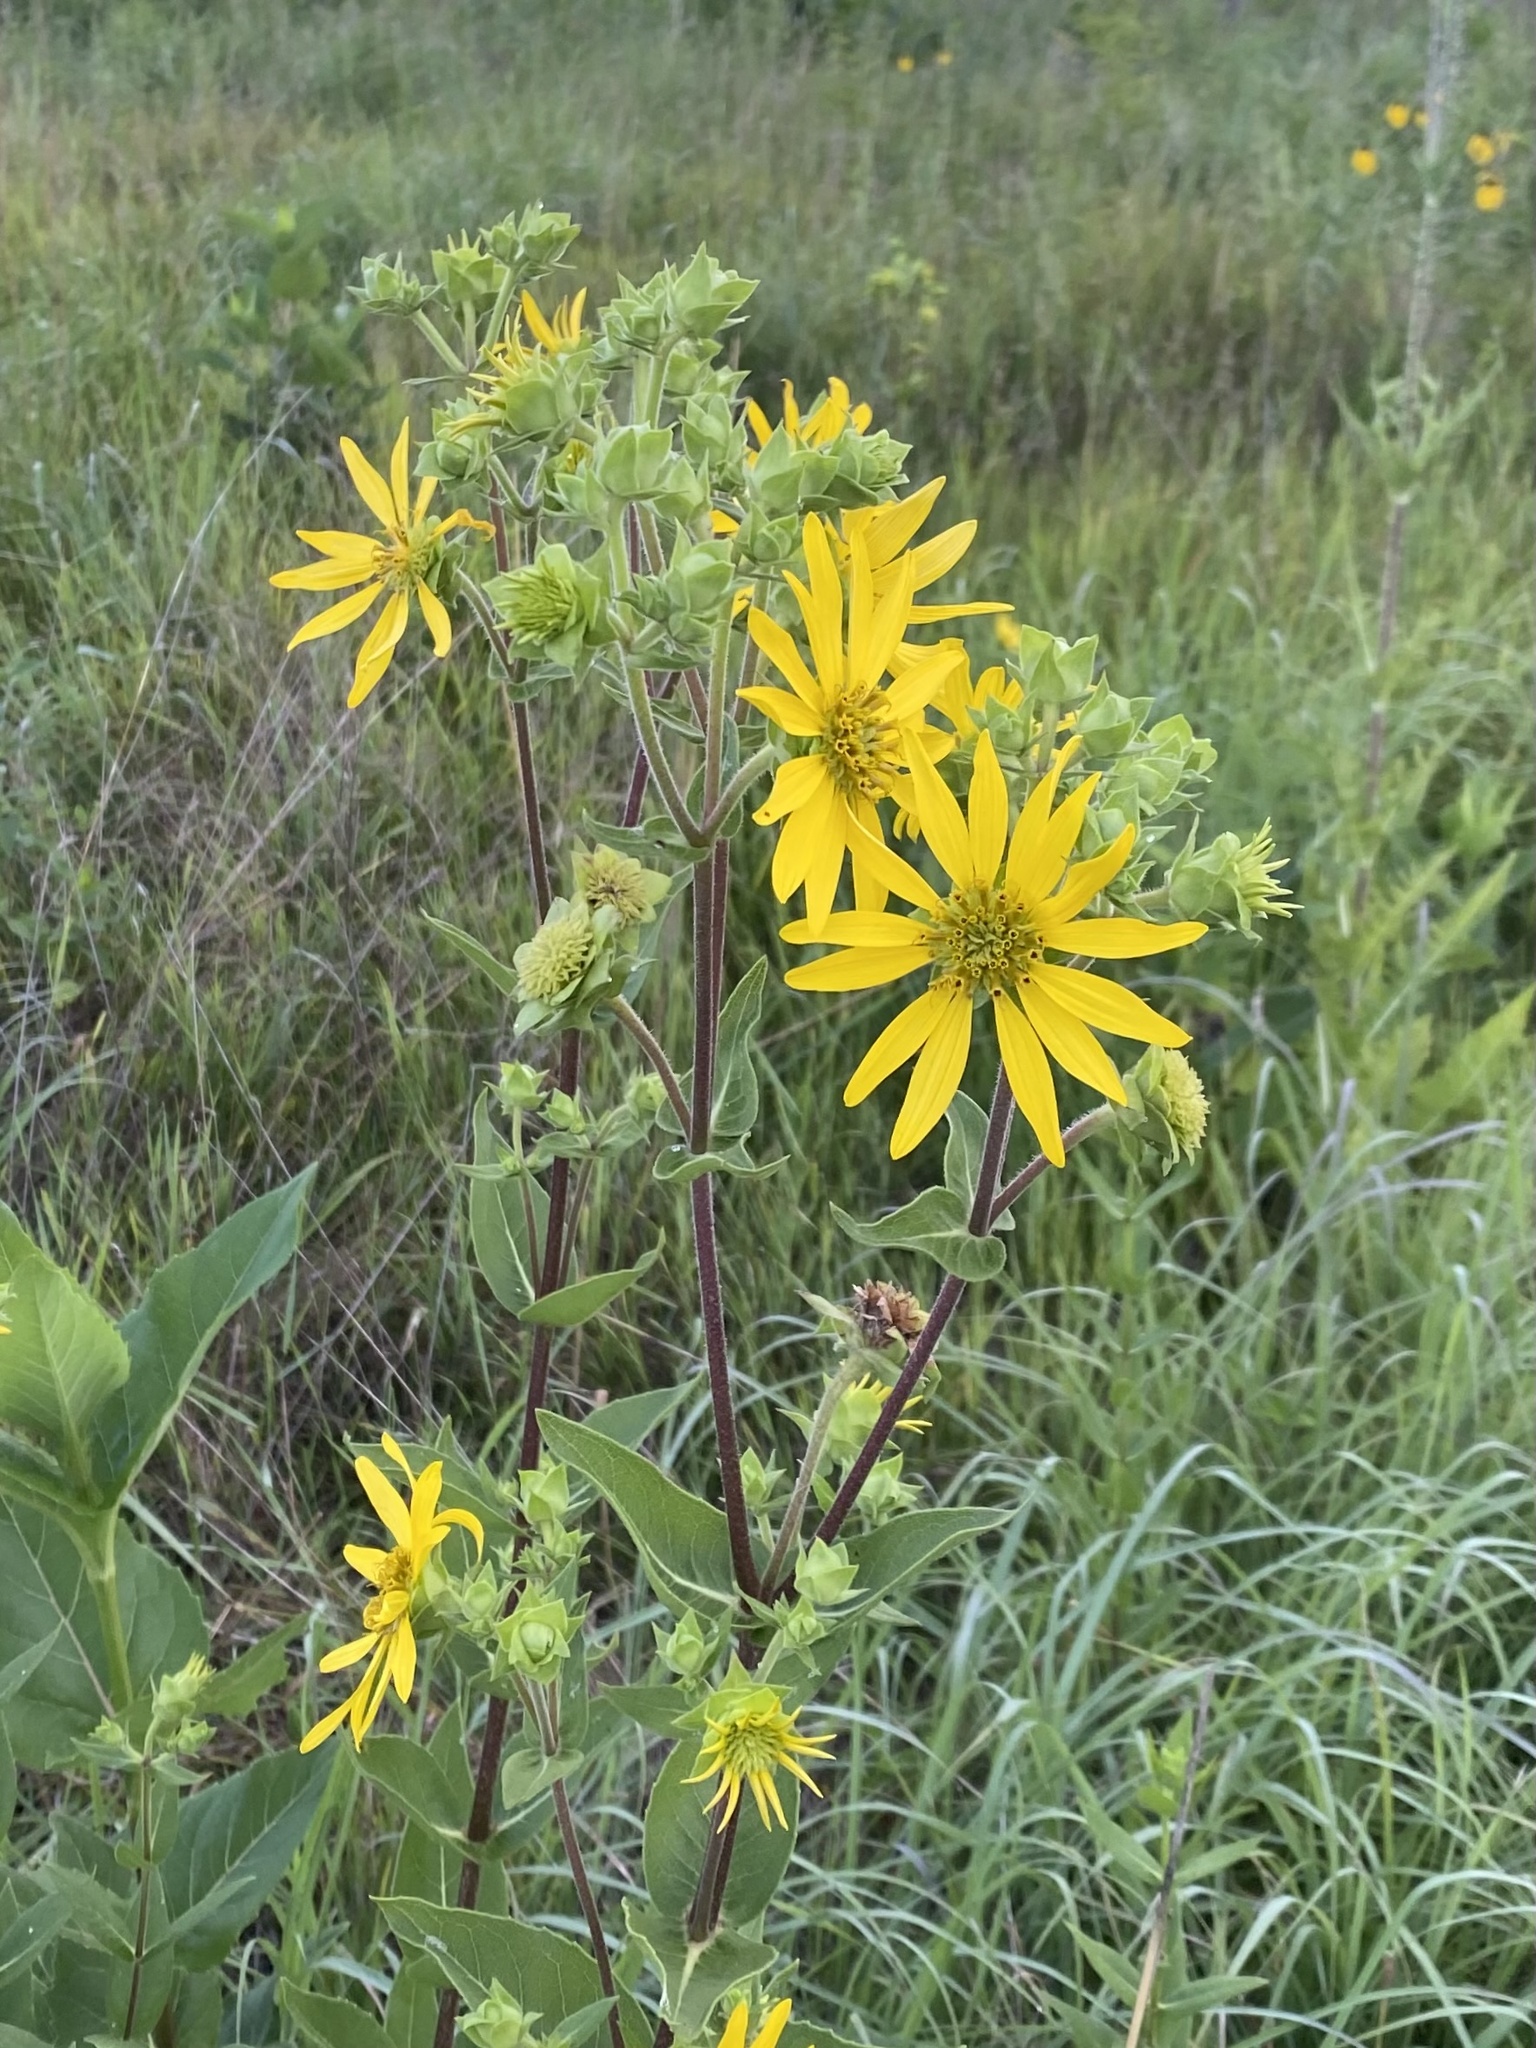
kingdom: Plantae
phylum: Tracheophyta
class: Magnoliopsida
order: Asterales
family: Asteraceae
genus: Silphium
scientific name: Silphium integrifolium
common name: Whole-leaf rosinweed
